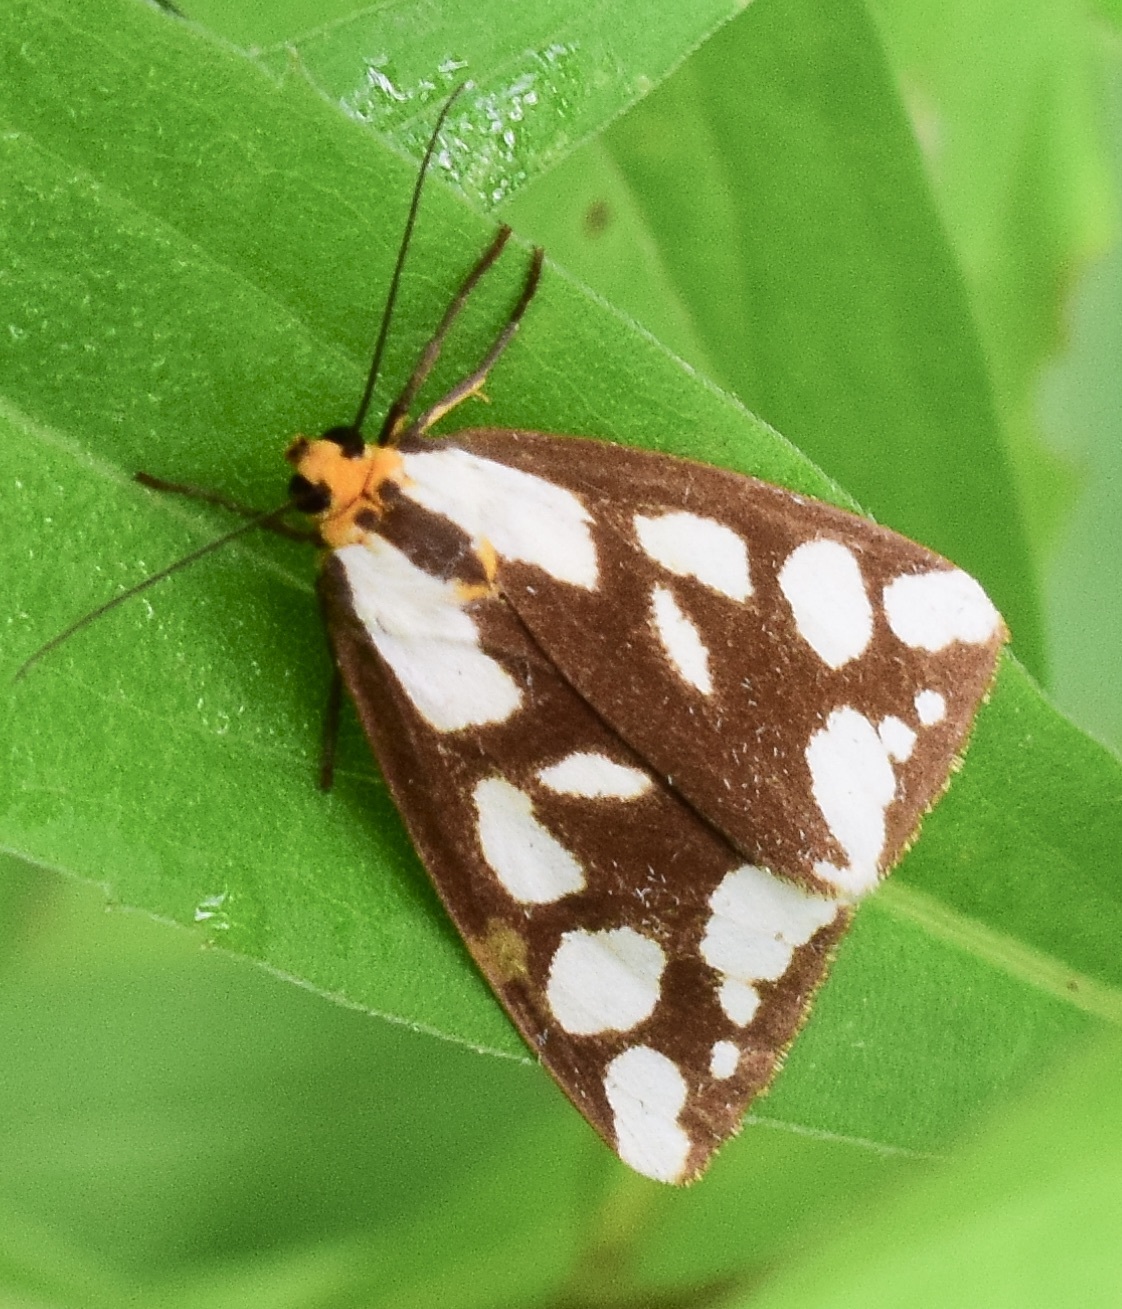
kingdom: Animalia
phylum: Arthropoda
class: Insecta
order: Lepidoptera
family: Erebidae
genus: Haploa
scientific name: Haploa confusa
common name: Confused haploa moth
